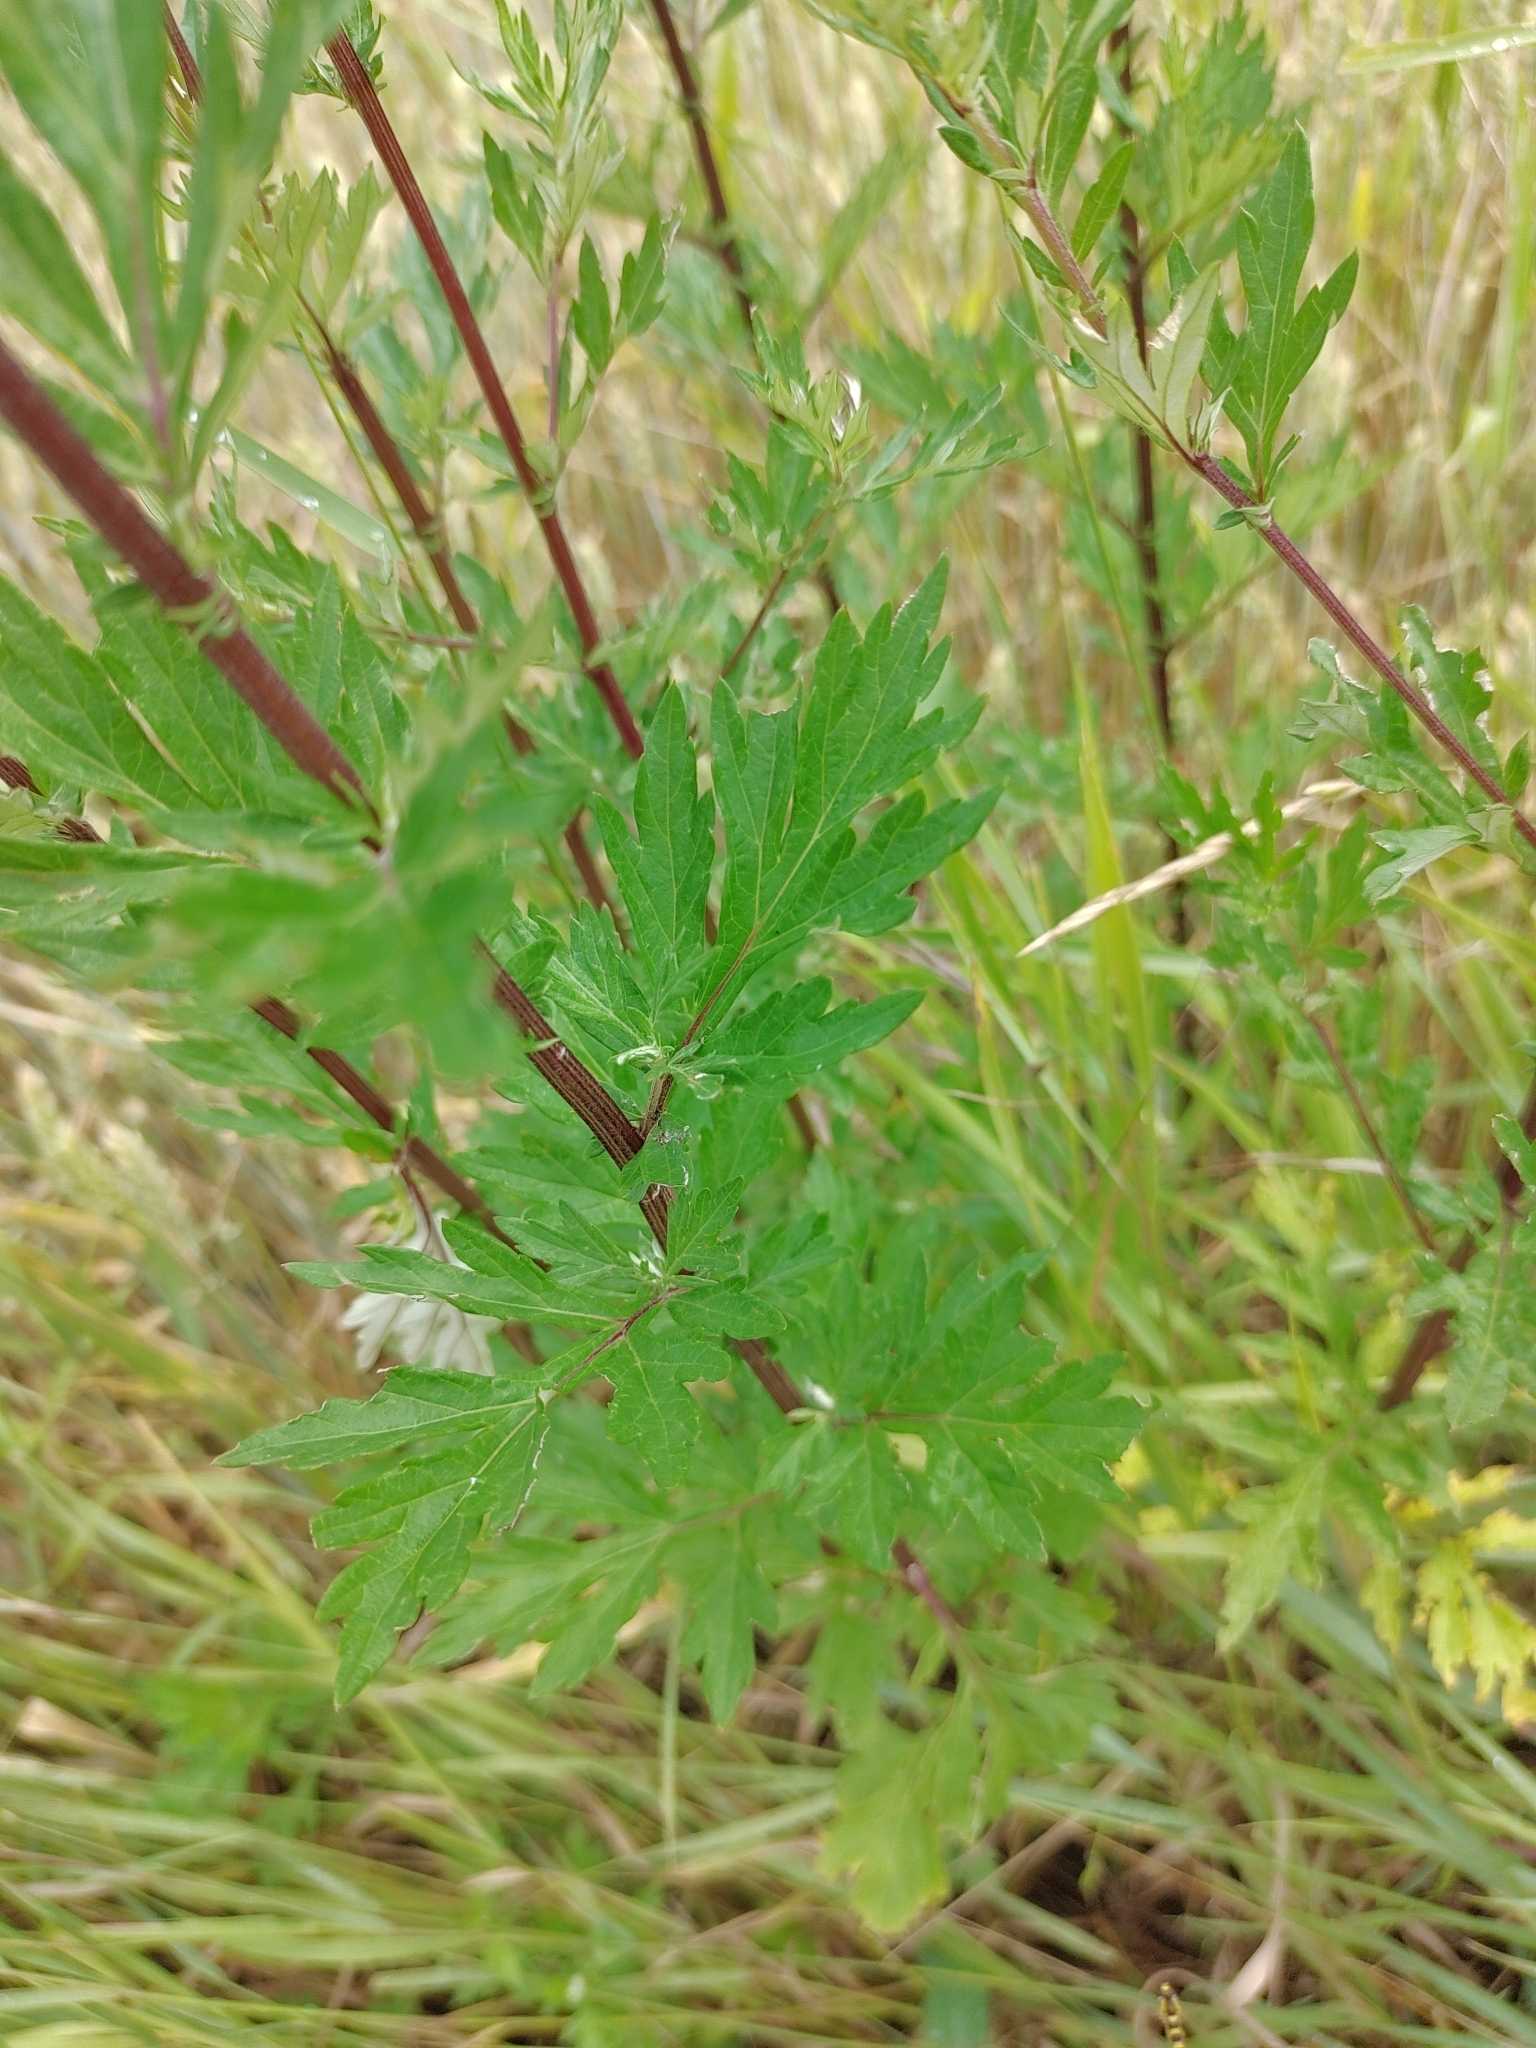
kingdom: Plantae
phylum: Tracheophyta
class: Magnoliopsida
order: Asterales
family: Asteraceae
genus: Artemisia
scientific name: Artemisia vulgaris
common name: Mugwort
